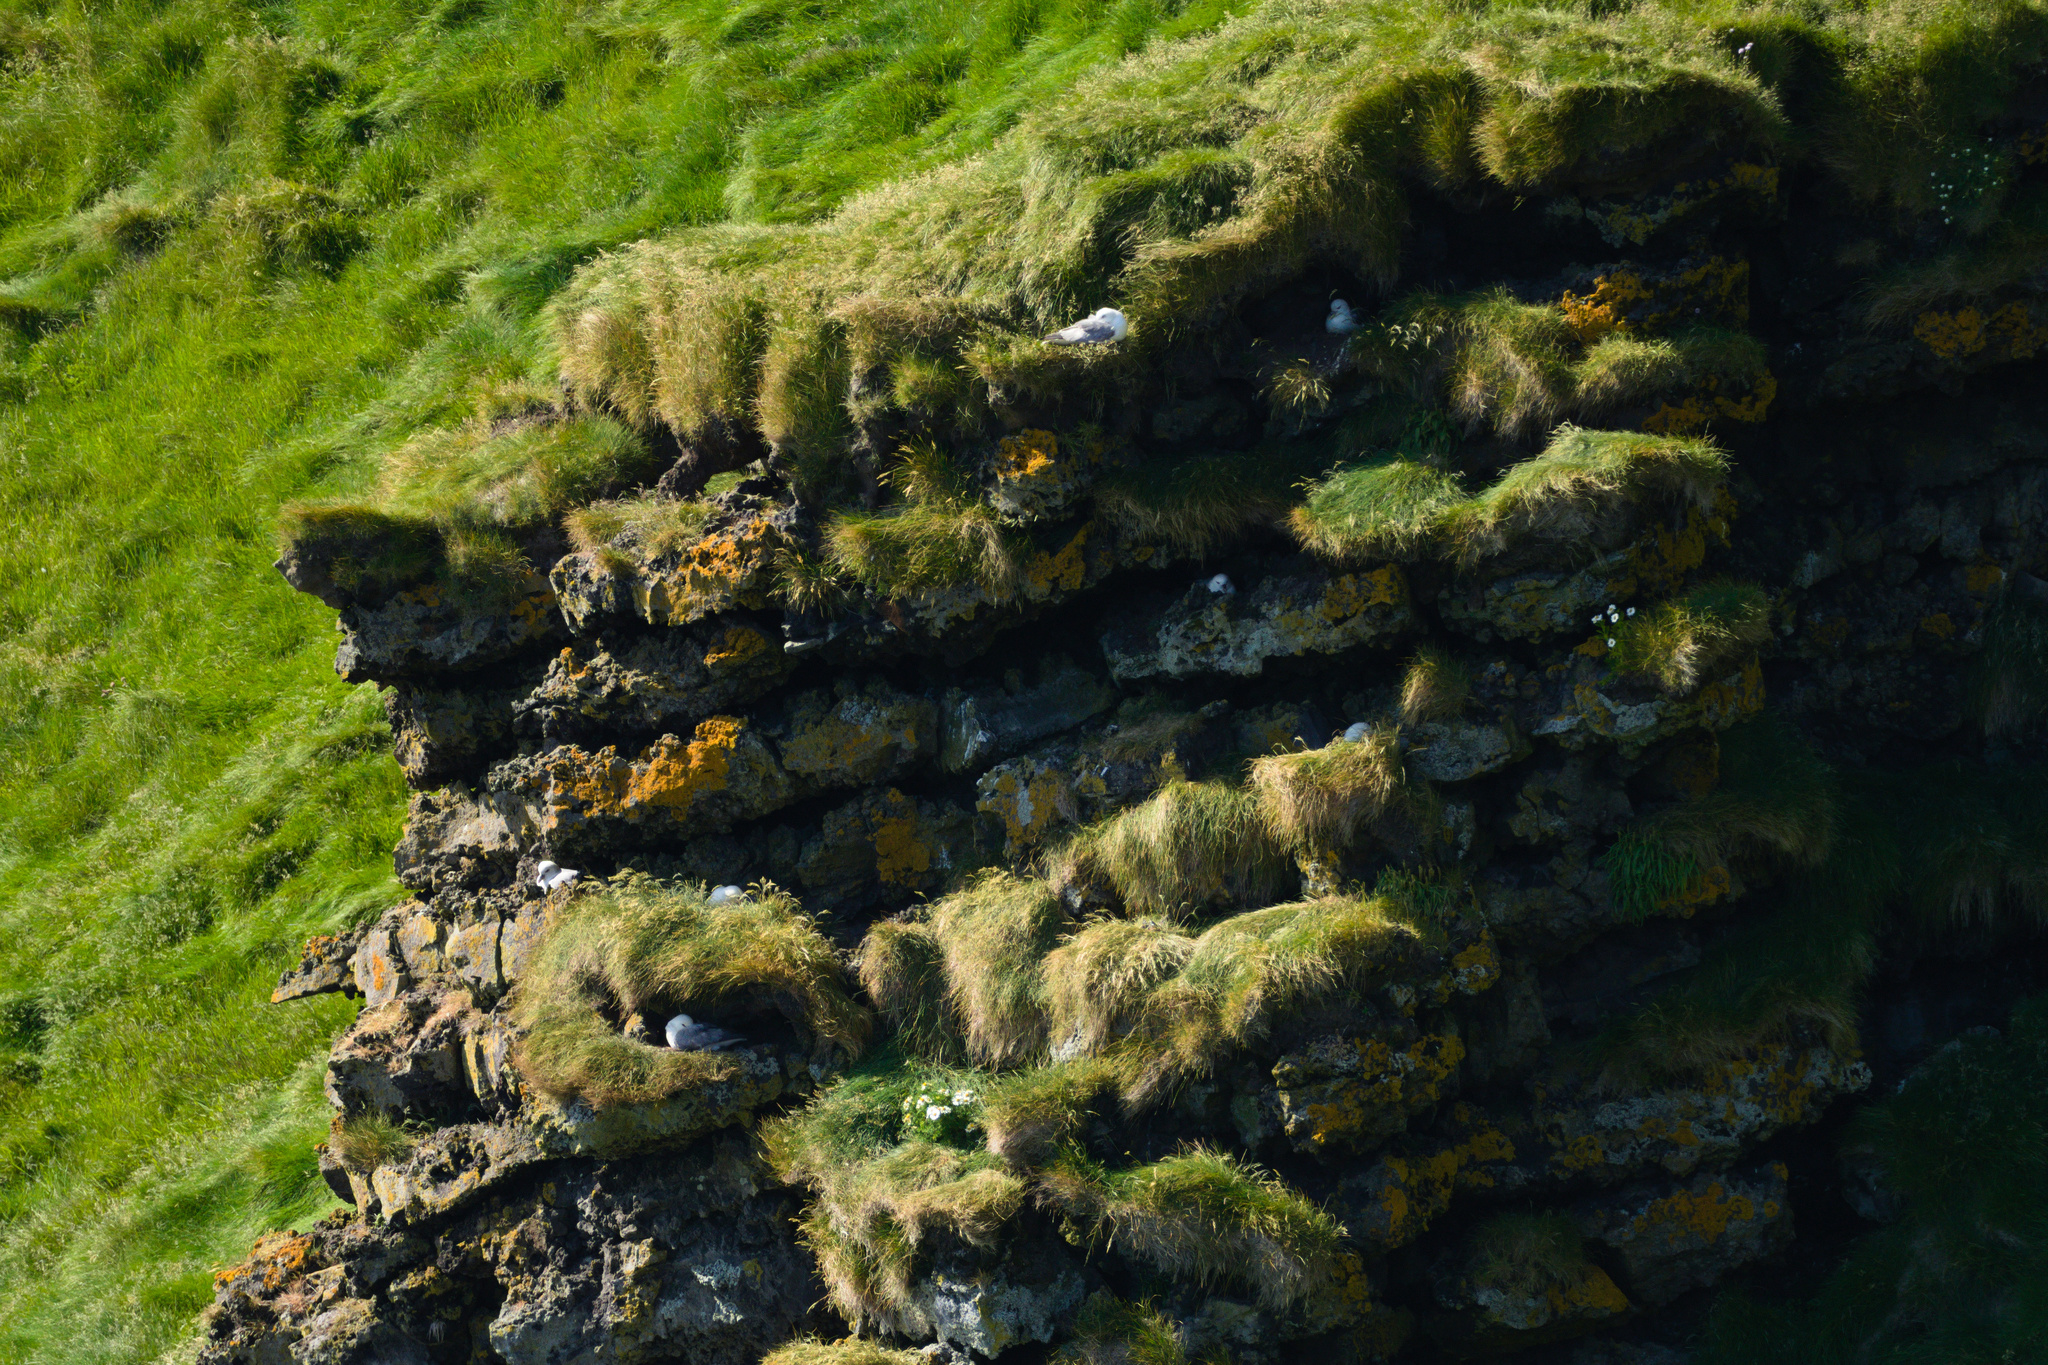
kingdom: Animalia
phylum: Chordata
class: Aves
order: Procellariiformes
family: Procellariidae
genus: Fulmarus
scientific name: Fulmarus glacialis
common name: Northern fulmar
